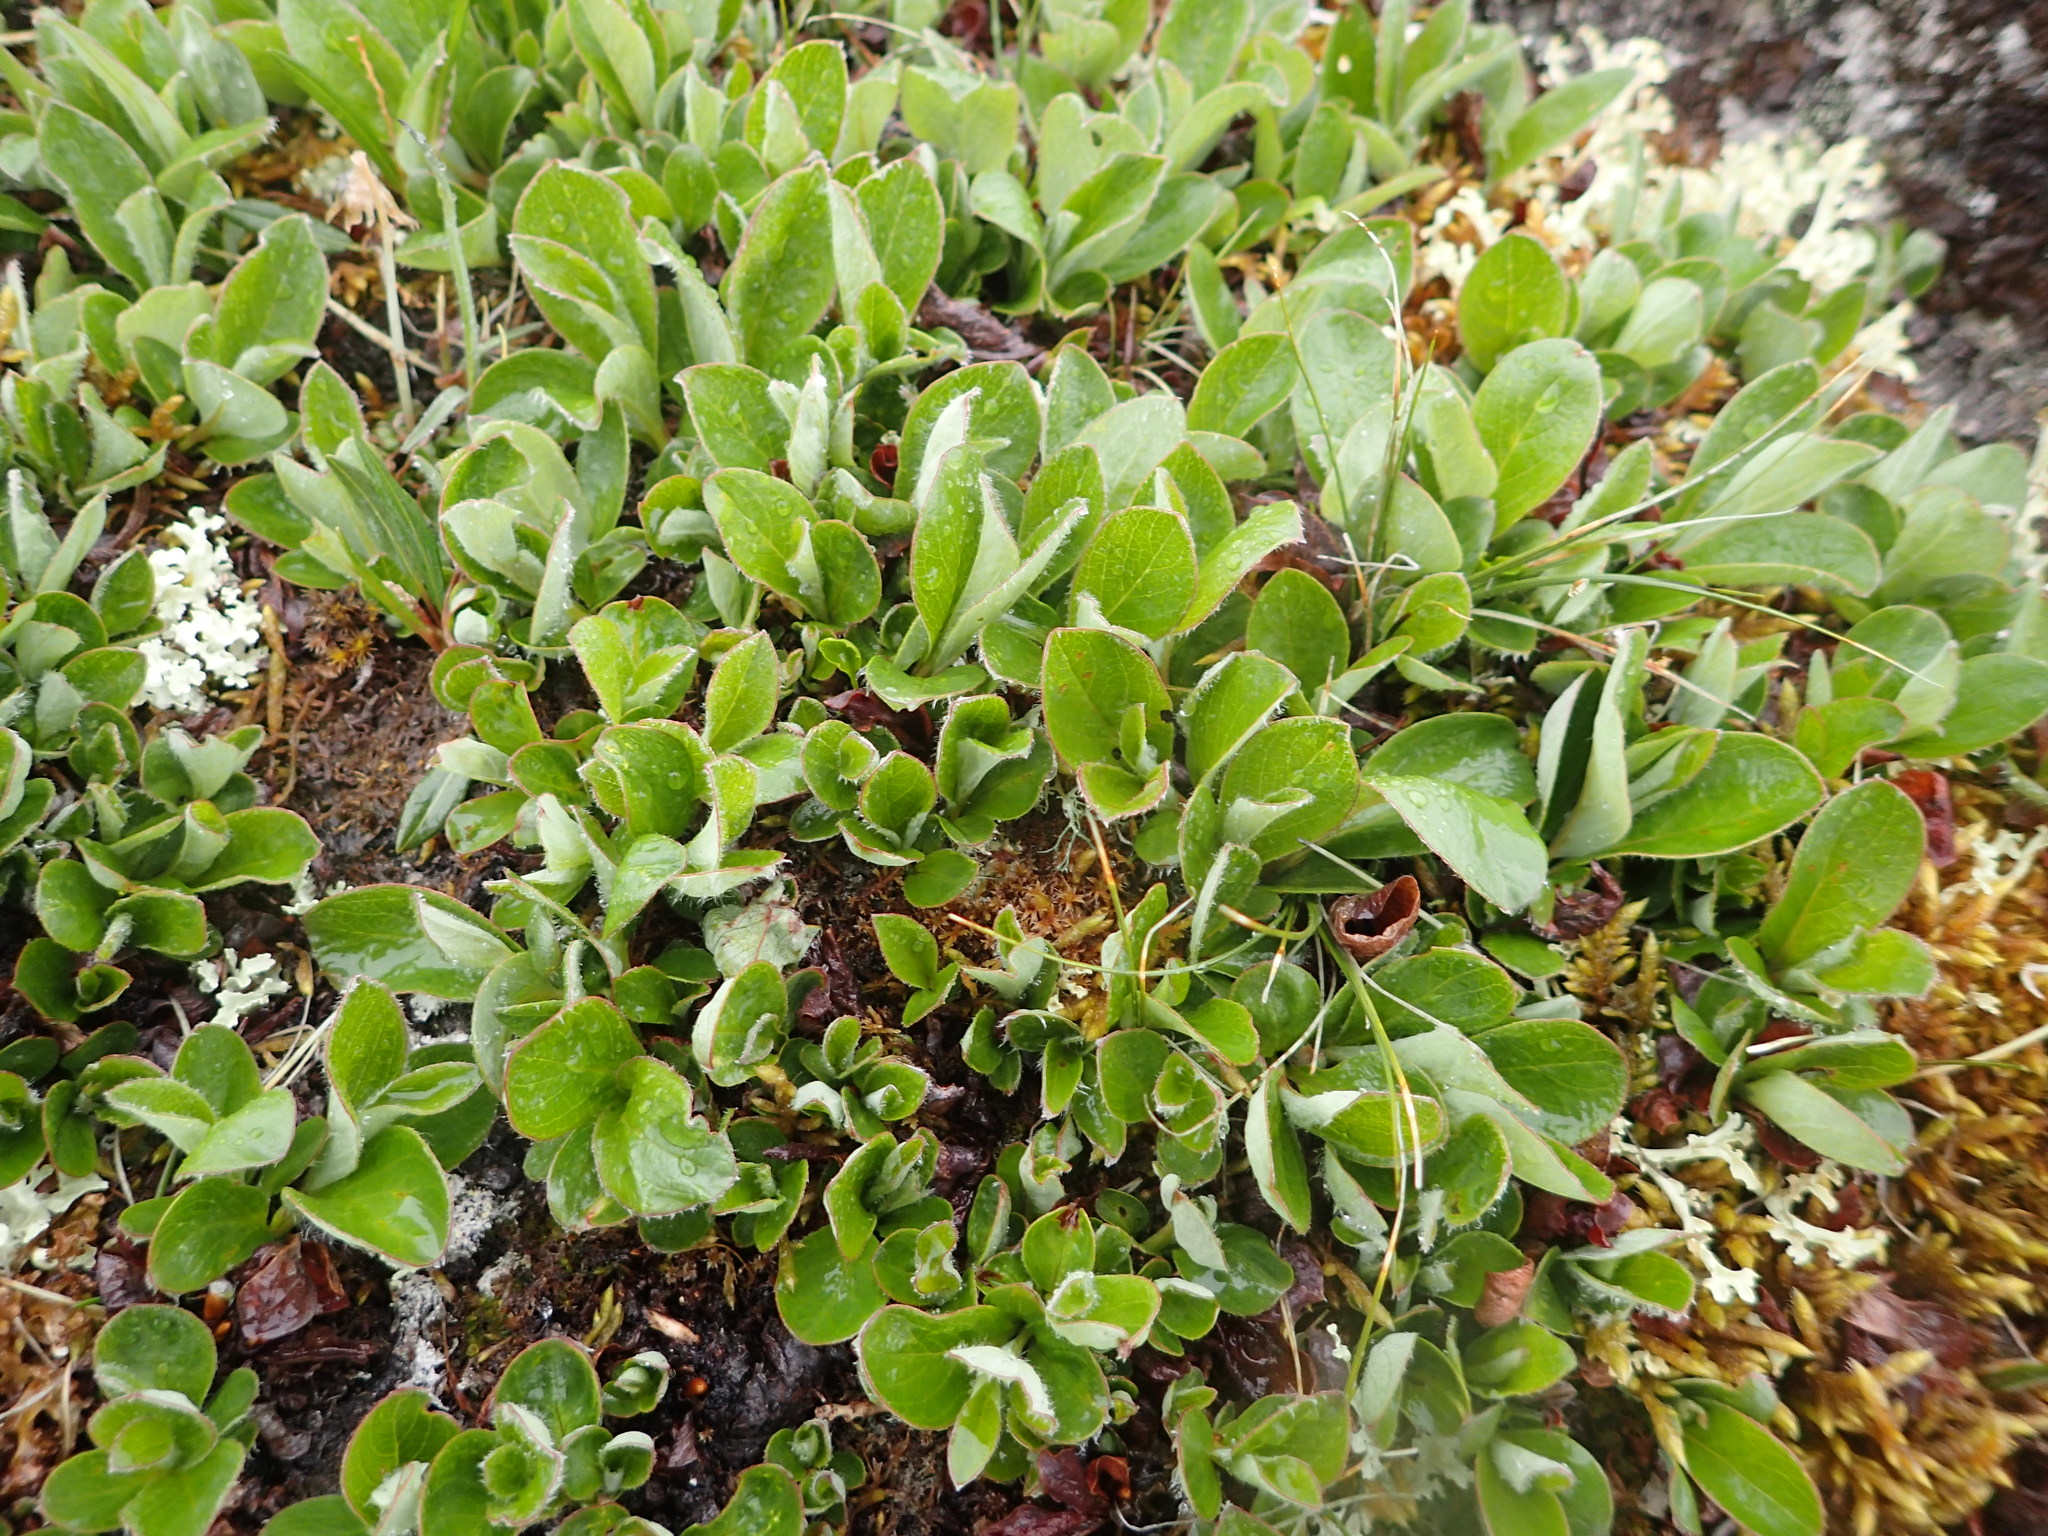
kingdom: Plantae
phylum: Tracheophyta
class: Magnoliopsida
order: Malpighiales
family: Salicaceae
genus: Salix
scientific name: Salix arctica
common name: Arctic willow
